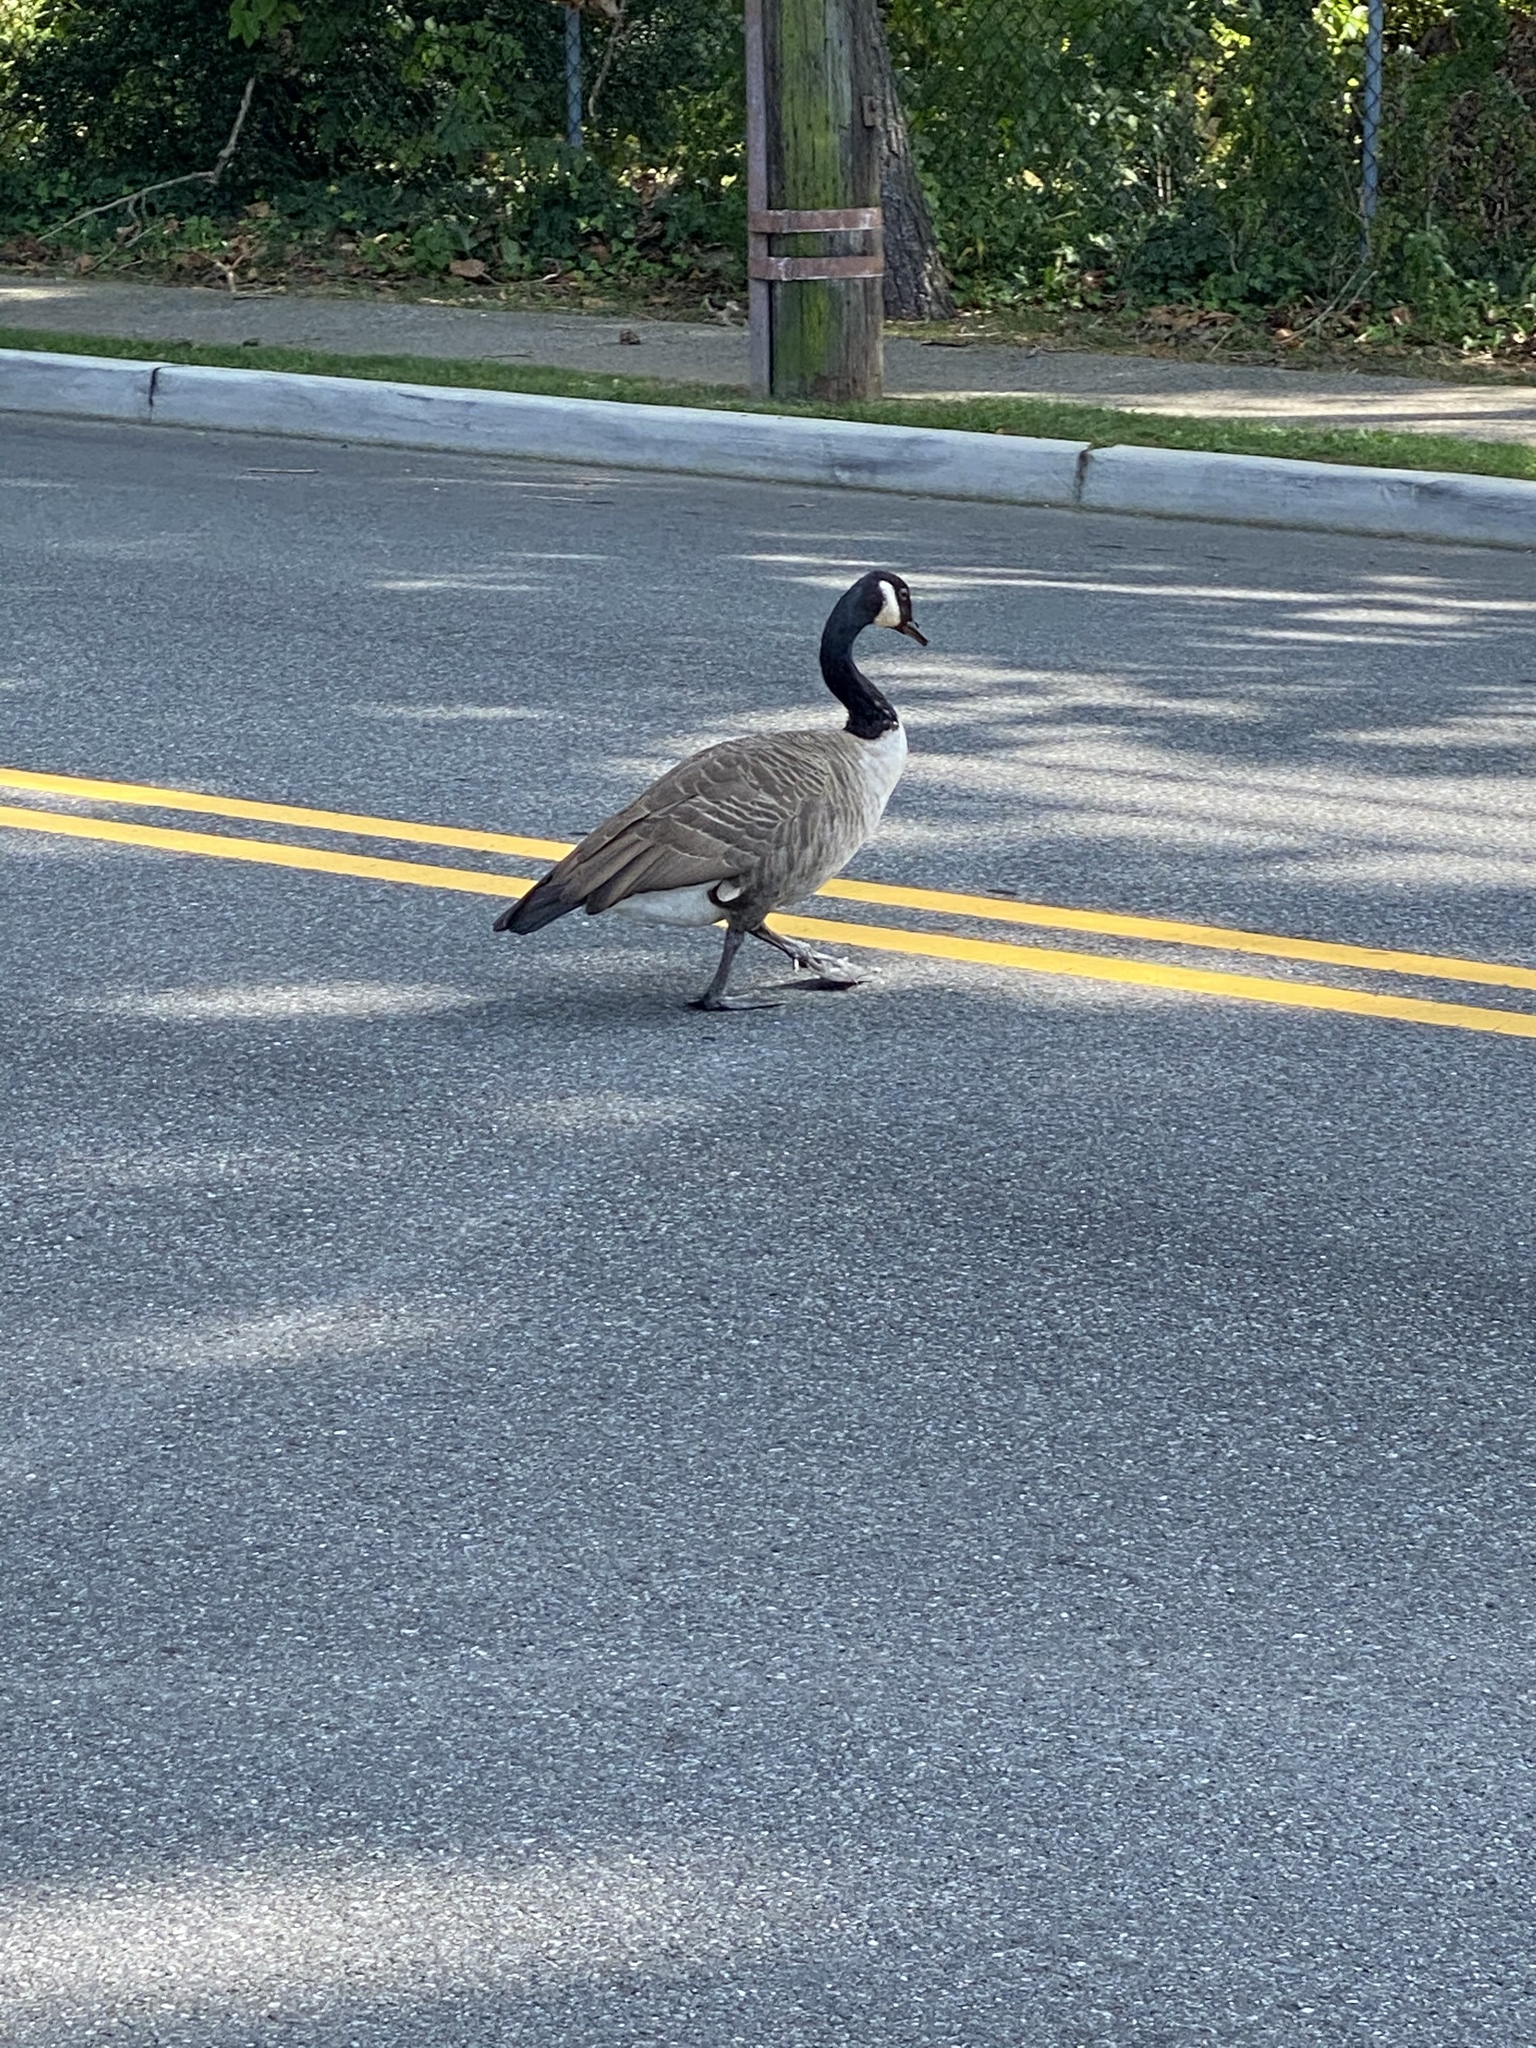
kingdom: Animalia
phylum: Chordata
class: Aves
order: Anseriformes
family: Anatidae
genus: Branta
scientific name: Branta canadensis
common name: Canada goose
